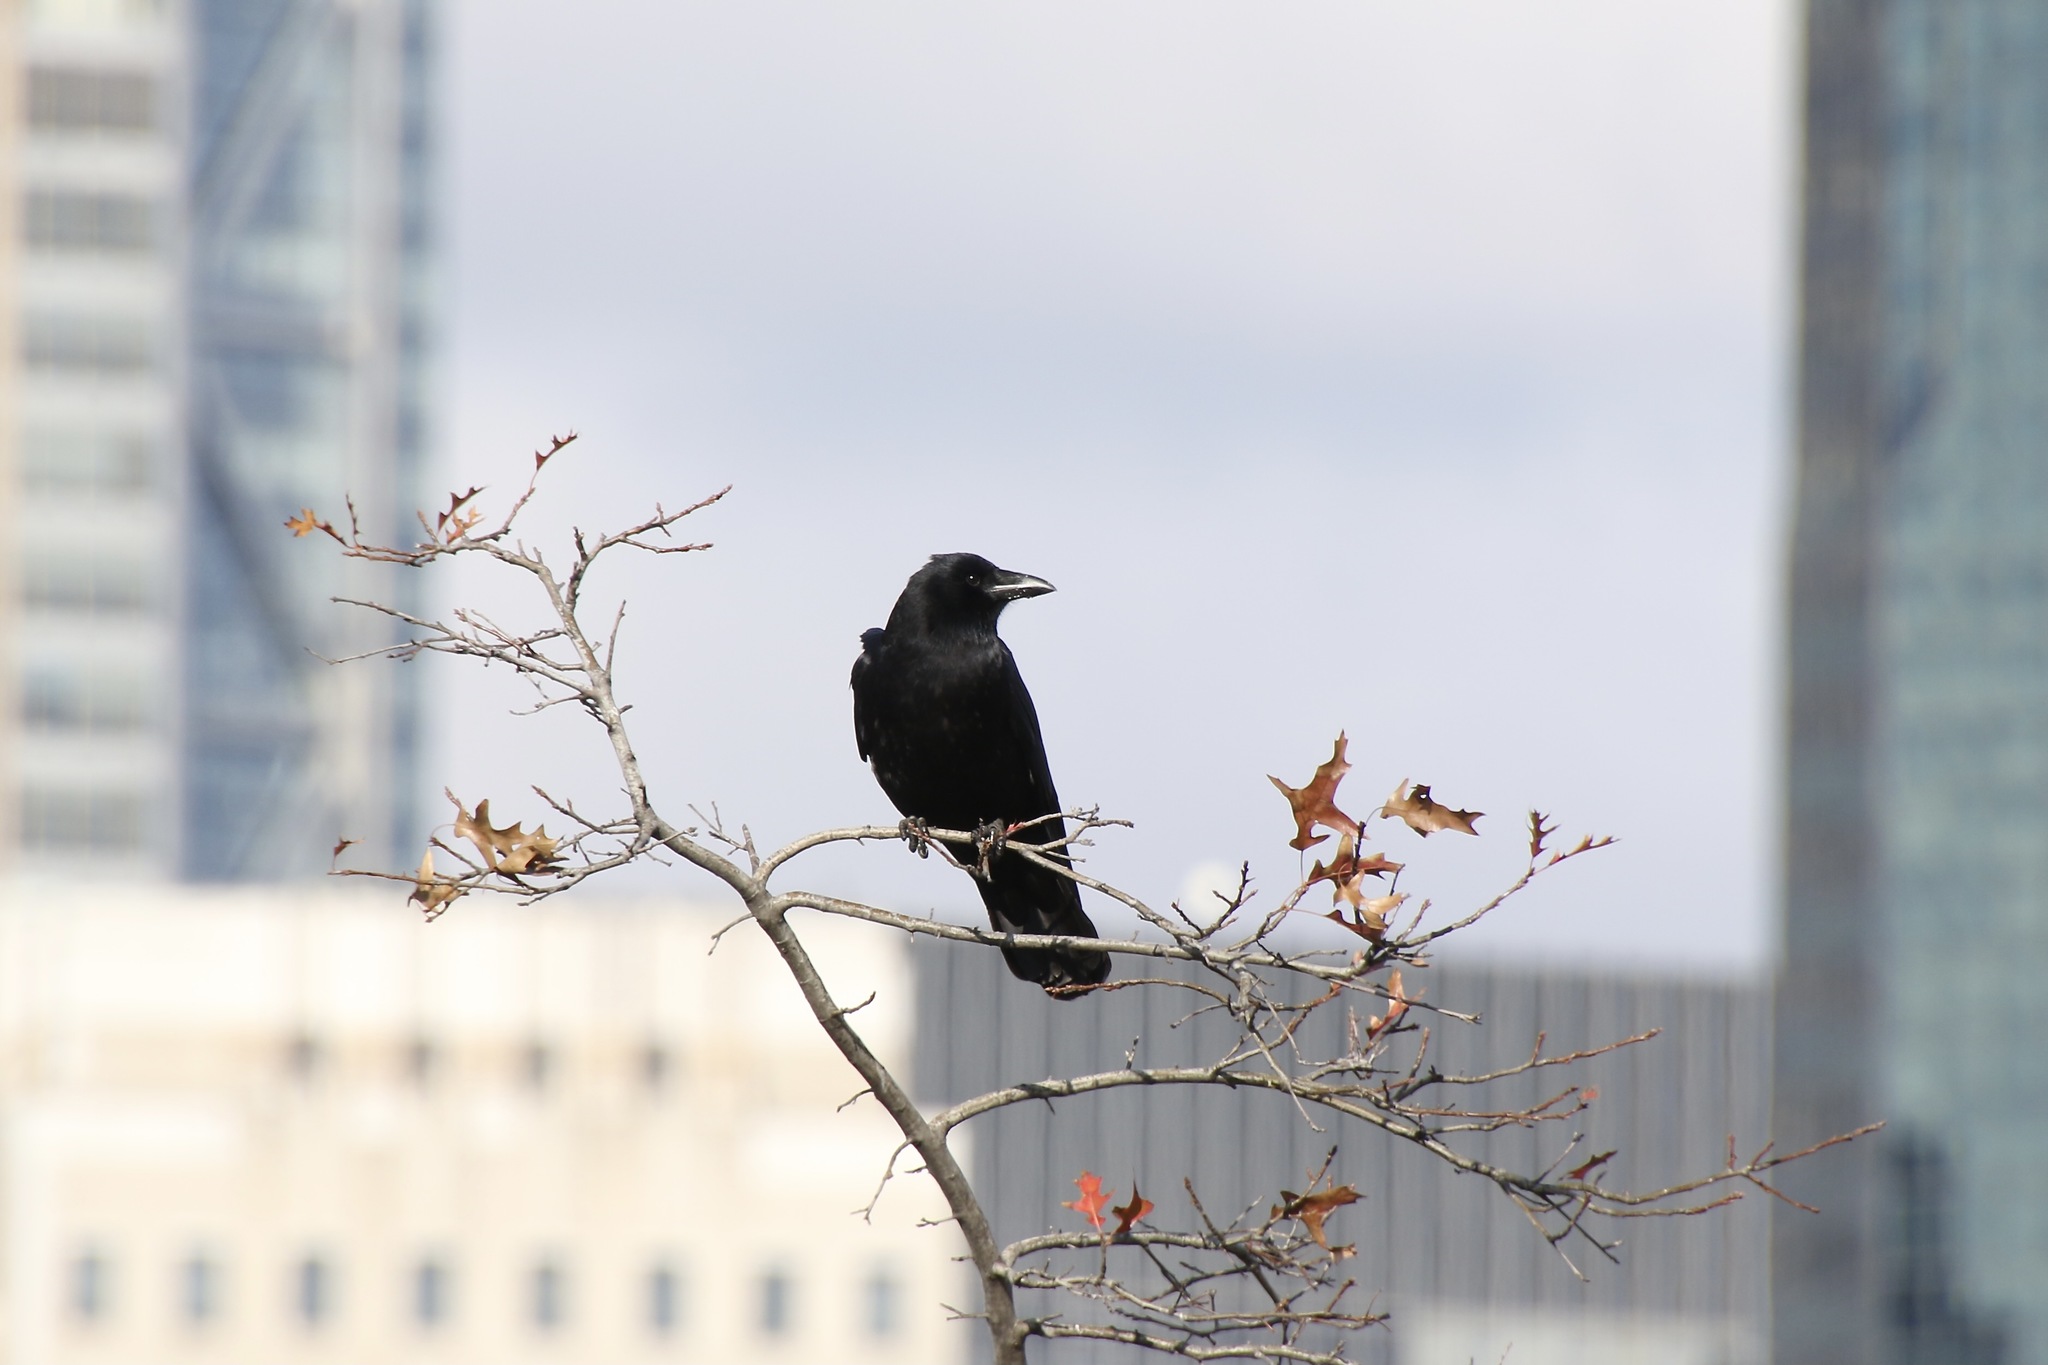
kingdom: Animalia
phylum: Chordata
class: Aves
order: Passeriformes
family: Corvidae
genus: Corvus
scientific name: Corvus brachyrhynchos
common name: American crow
